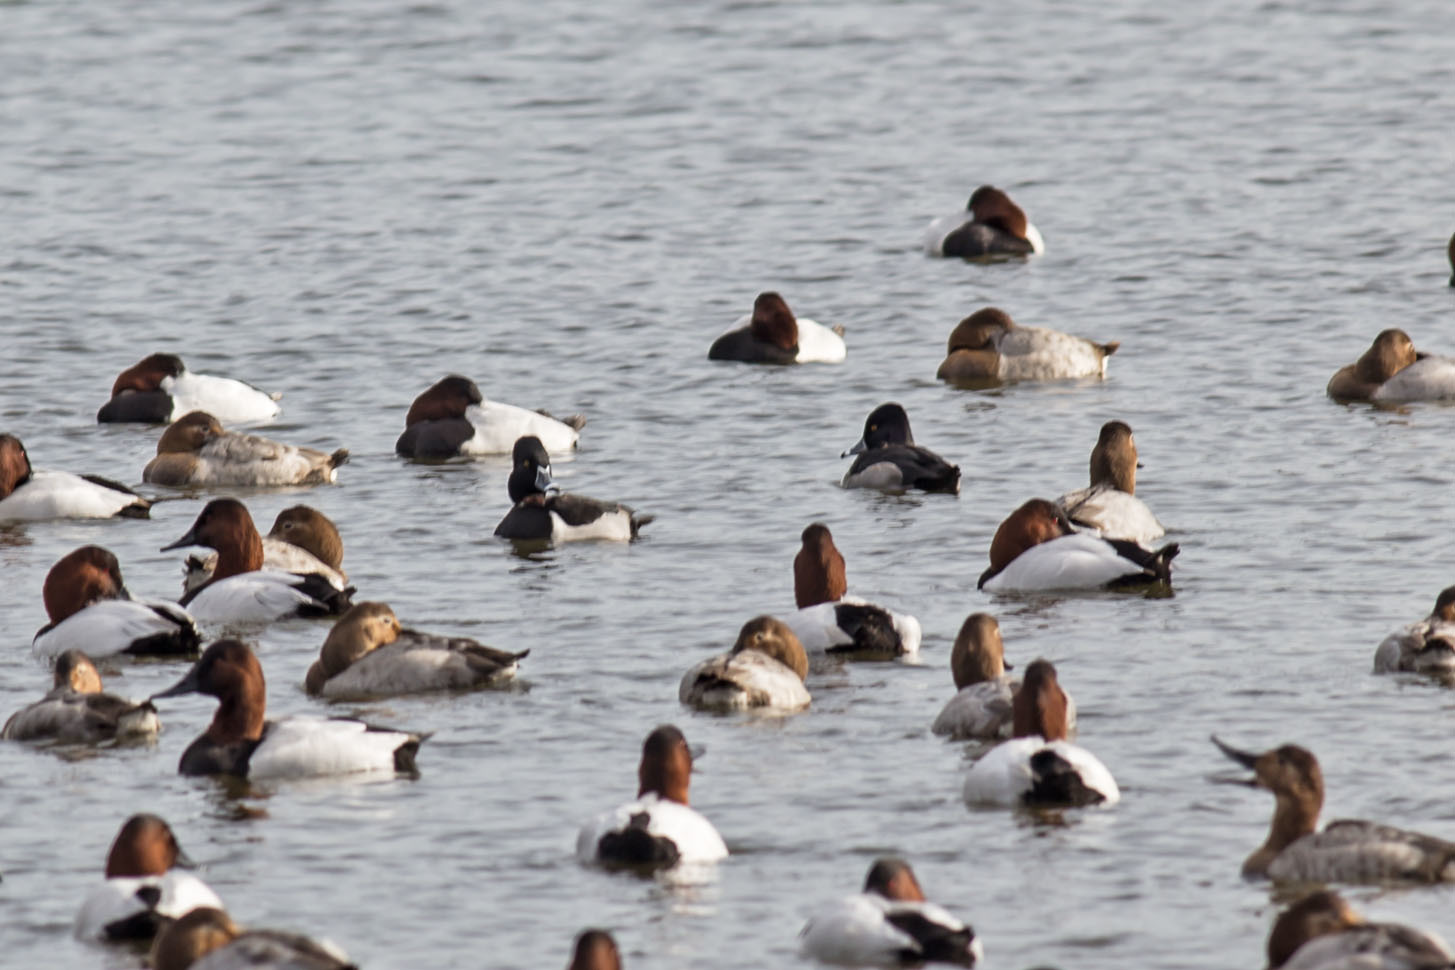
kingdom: Animalia
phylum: Chordata
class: Aves
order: Anseriformes
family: Anatidae
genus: Aythya
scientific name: Aythya collaris
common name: Ring-necked duck
